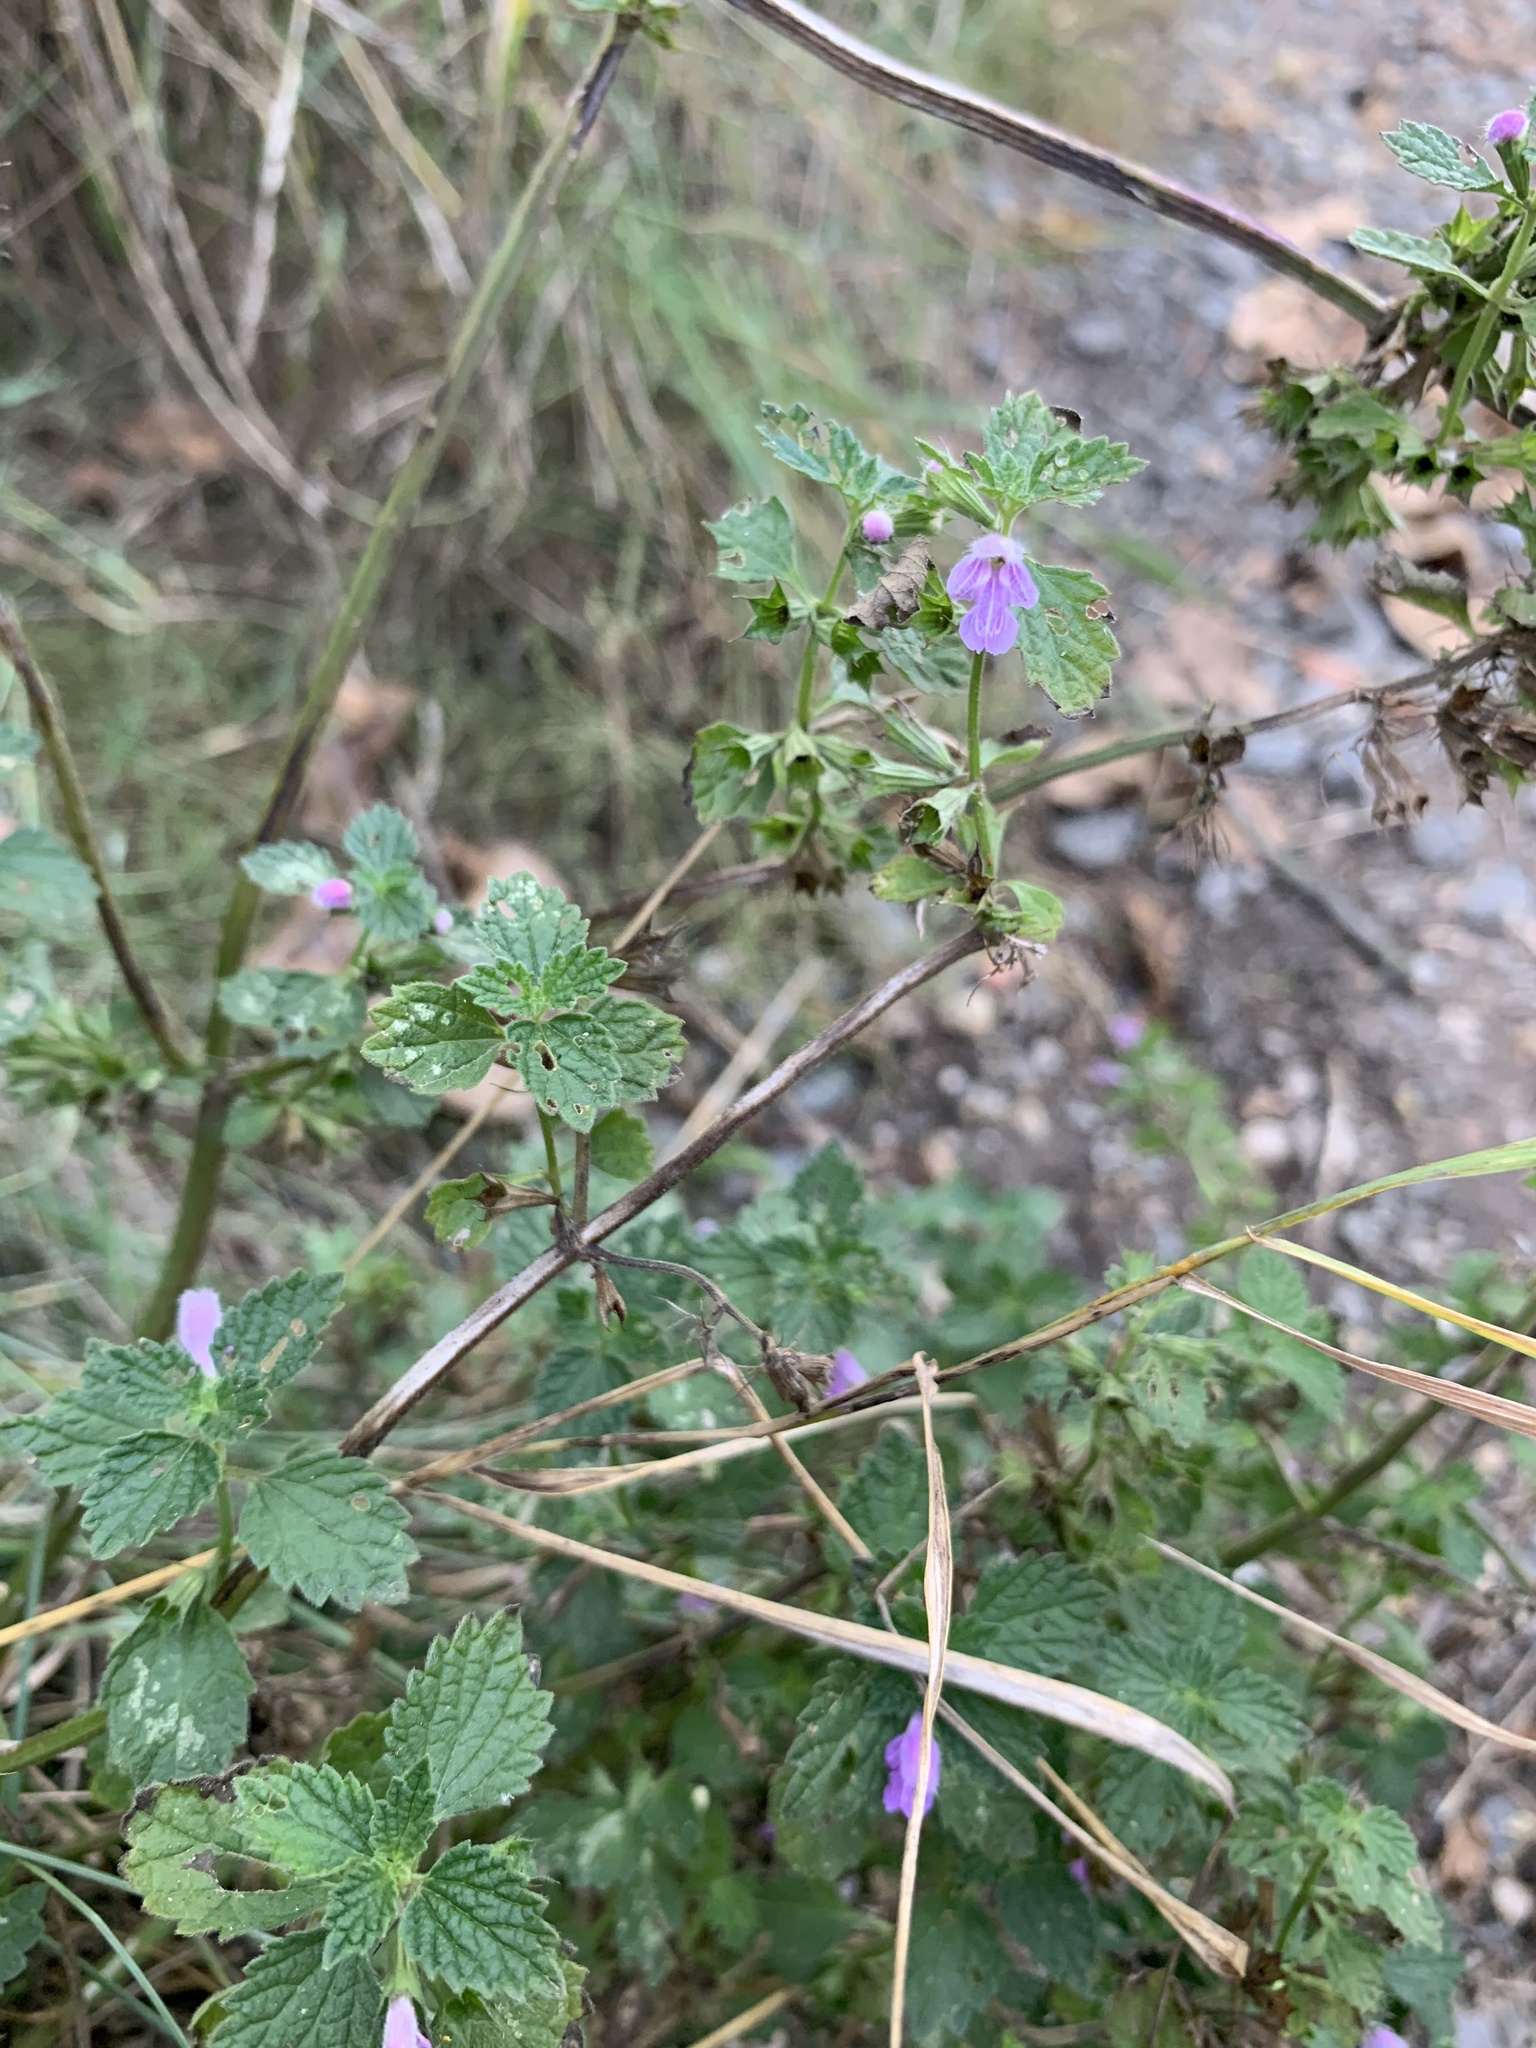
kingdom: Plantae
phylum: Tracheophyta
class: Magnoliopsida
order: Lamiales
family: Lamiaceae
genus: Ballota
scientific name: Ballota nigra
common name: Black horehound
